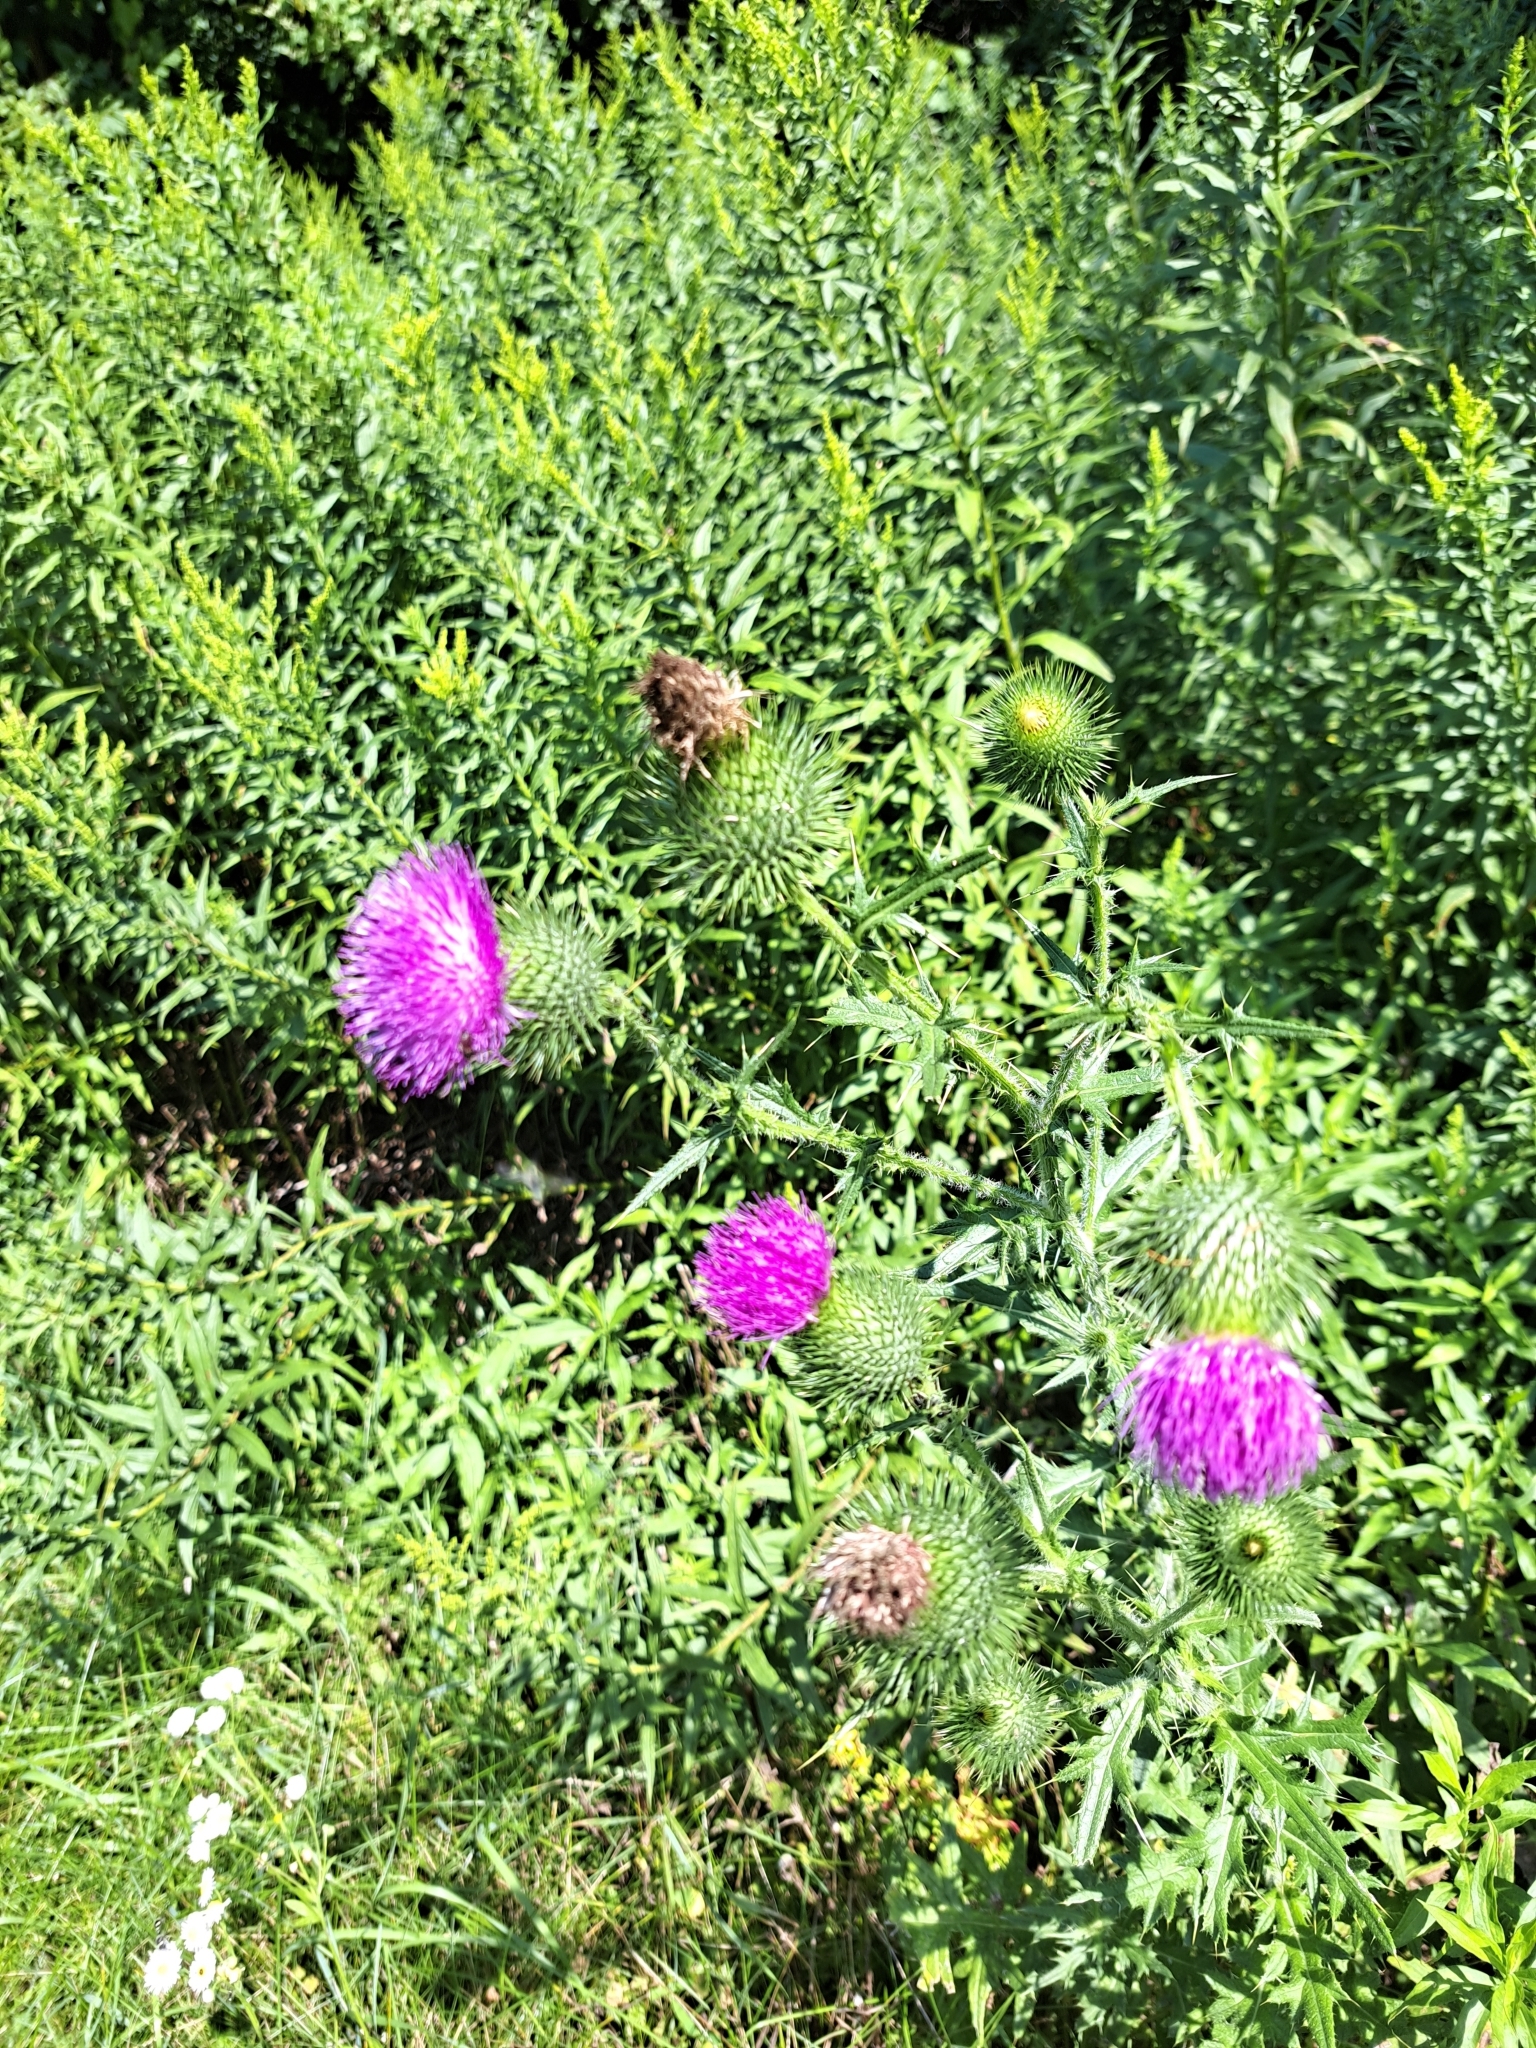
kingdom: Plantae
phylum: Tracheophyta
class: Magnoliopsida
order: Asterales
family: Asteraceae
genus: Cirsium
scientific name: Cirsium vulgare
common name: Bull thistle
